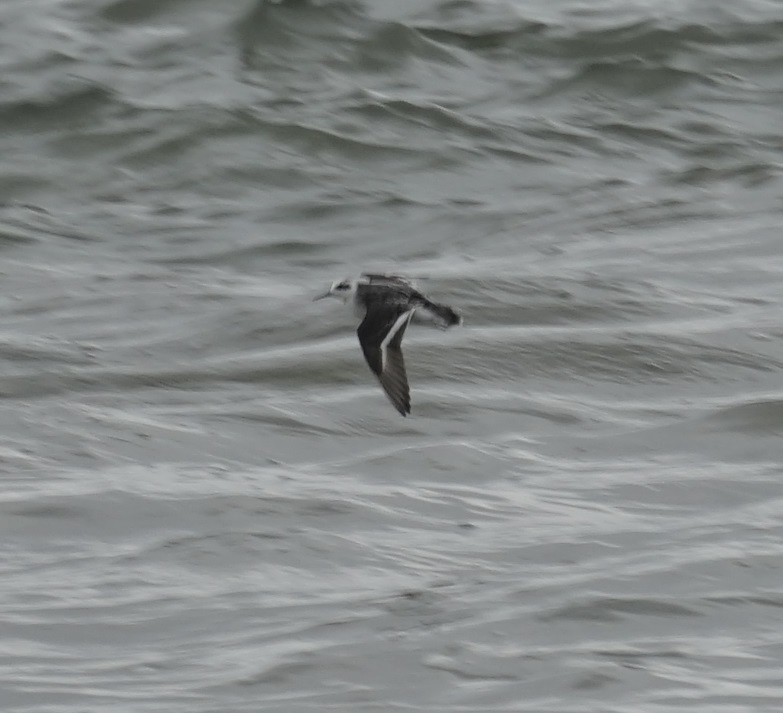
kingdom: Animalia
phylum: Chordata
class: Aves
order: Charadriiformes
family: Scolopacidae
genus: Phalaropus
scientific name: Phalaropus lobatus
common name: Red-necked phalarope
